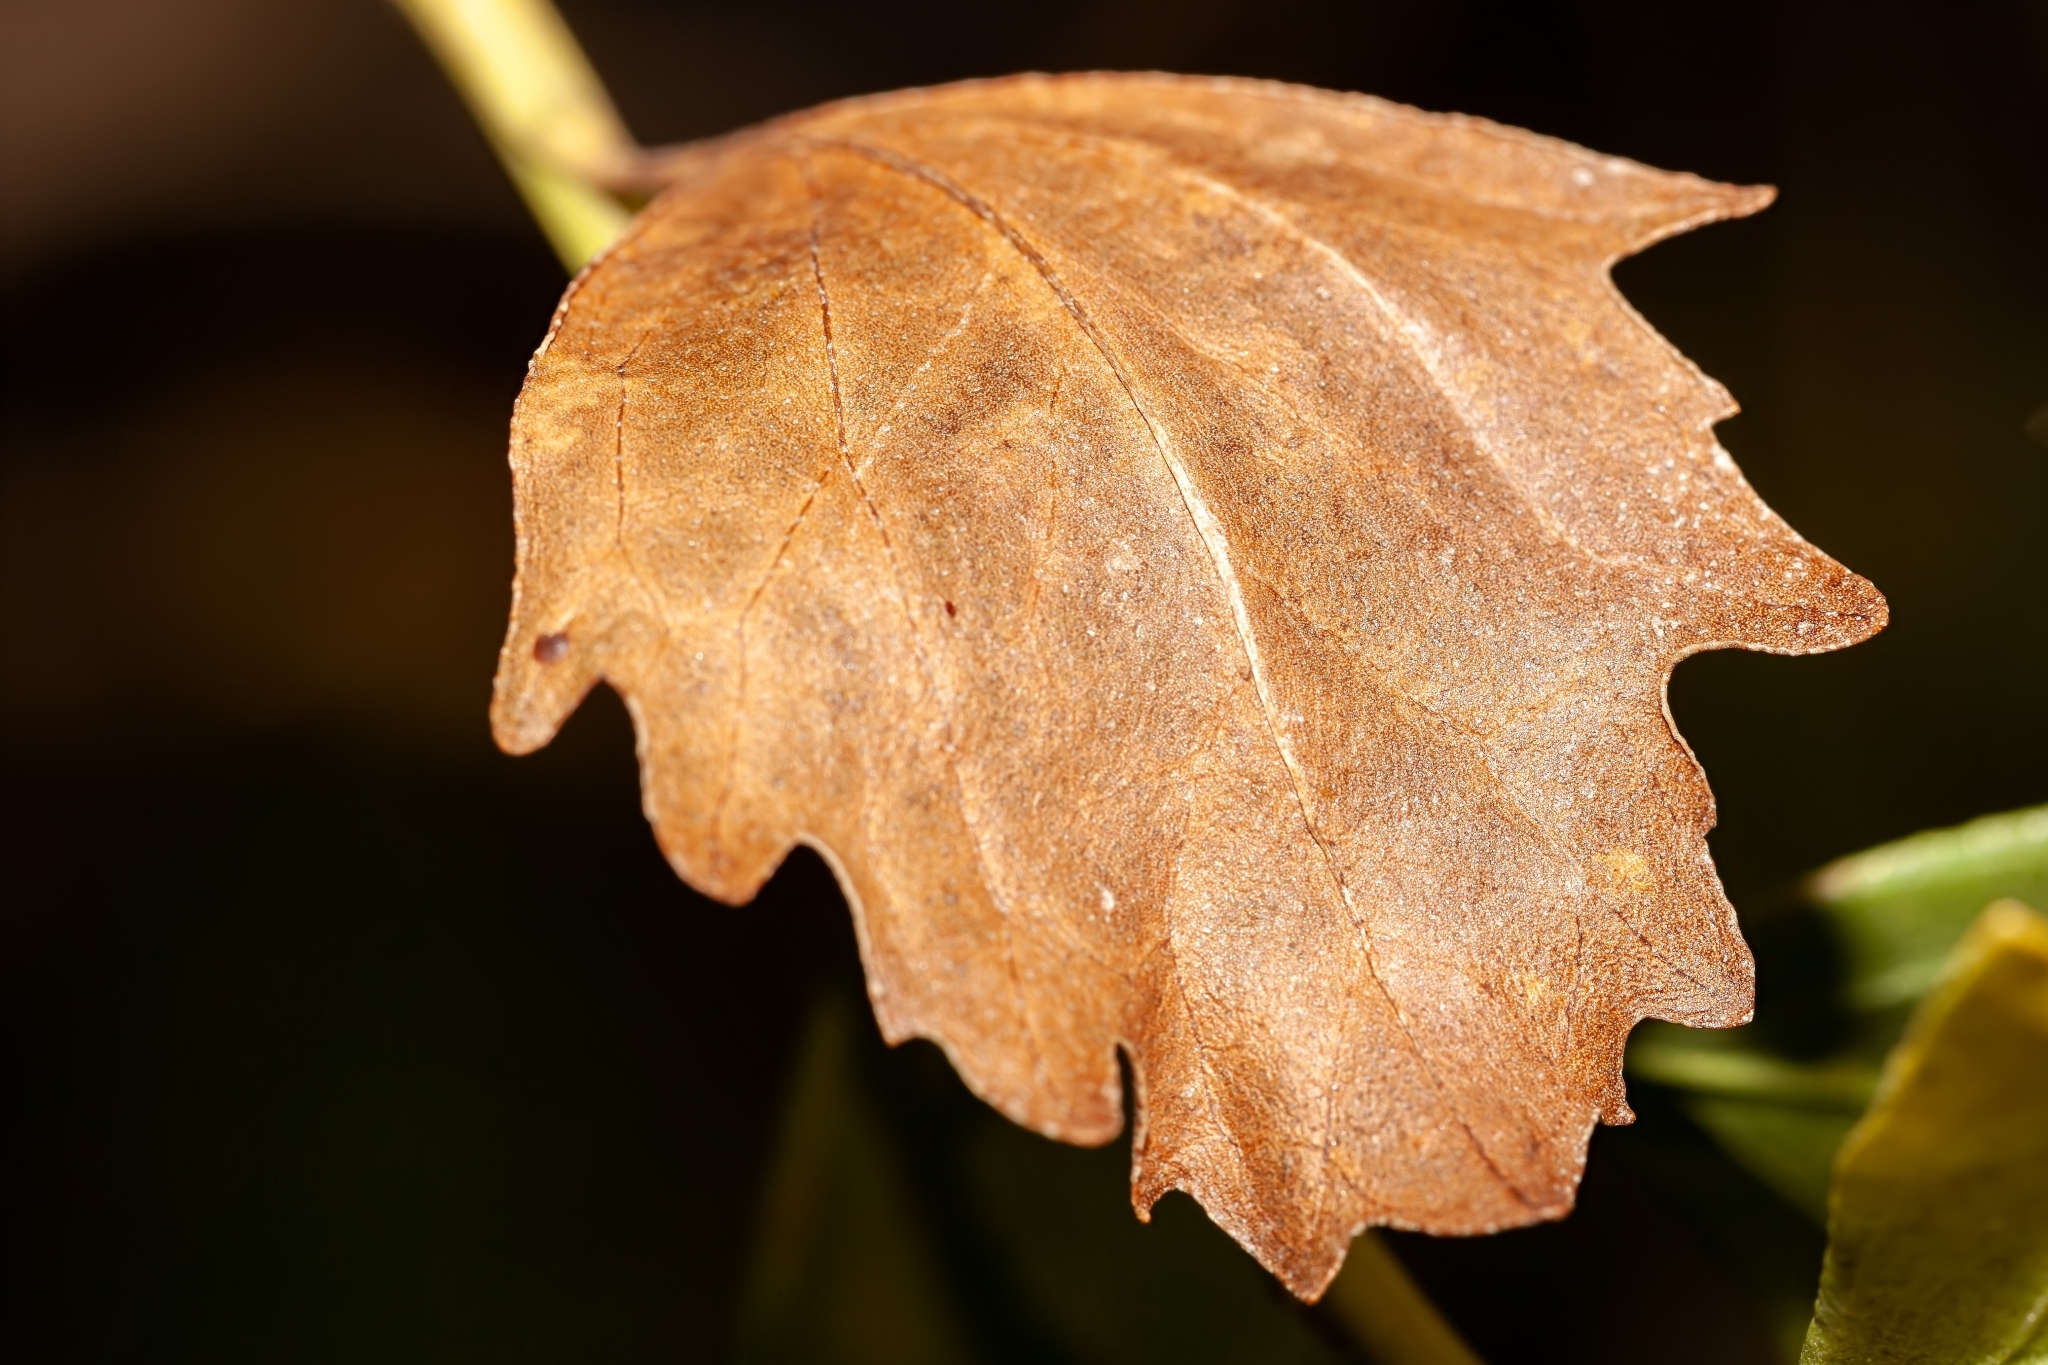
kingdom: Plantae
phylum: Tracheophyta
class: Magnoliopsida
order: Asterales
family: Asteraceae
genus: Baccharis
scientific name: Baccharis halimifolia
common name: Eastern baccharis
